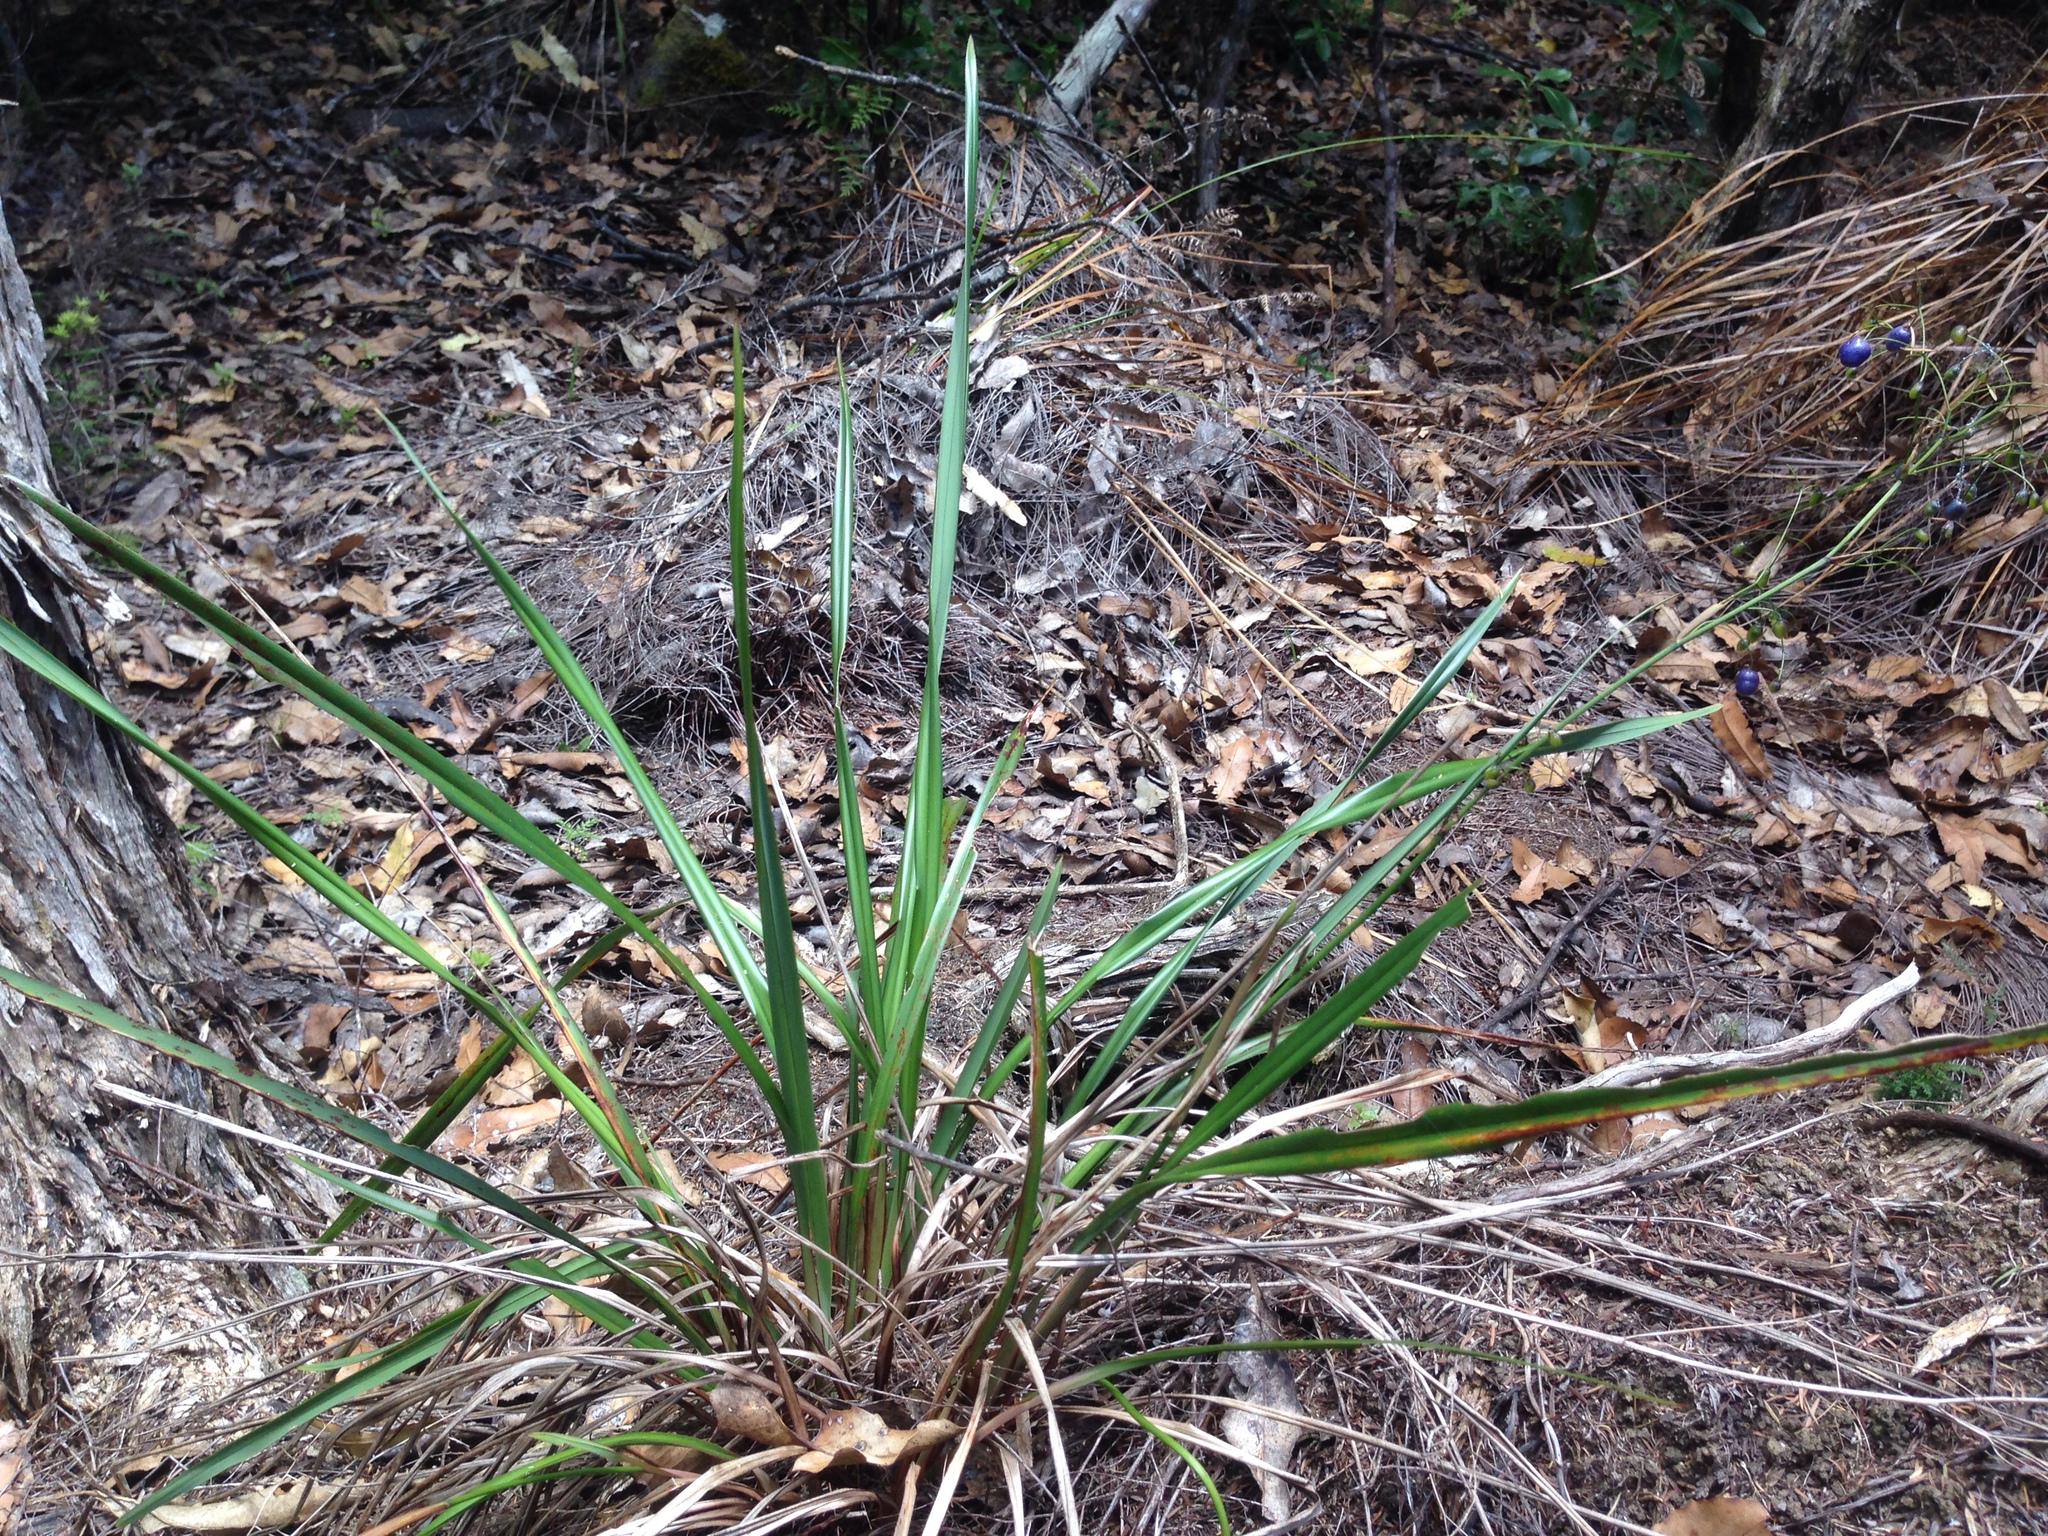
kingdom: Plantae
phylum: Tracheophyta
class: Liliopsida
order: Asparagales
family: Asphodelaceae
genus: Dianella
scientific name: Dianella nigra
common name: New zealand-blueberry
